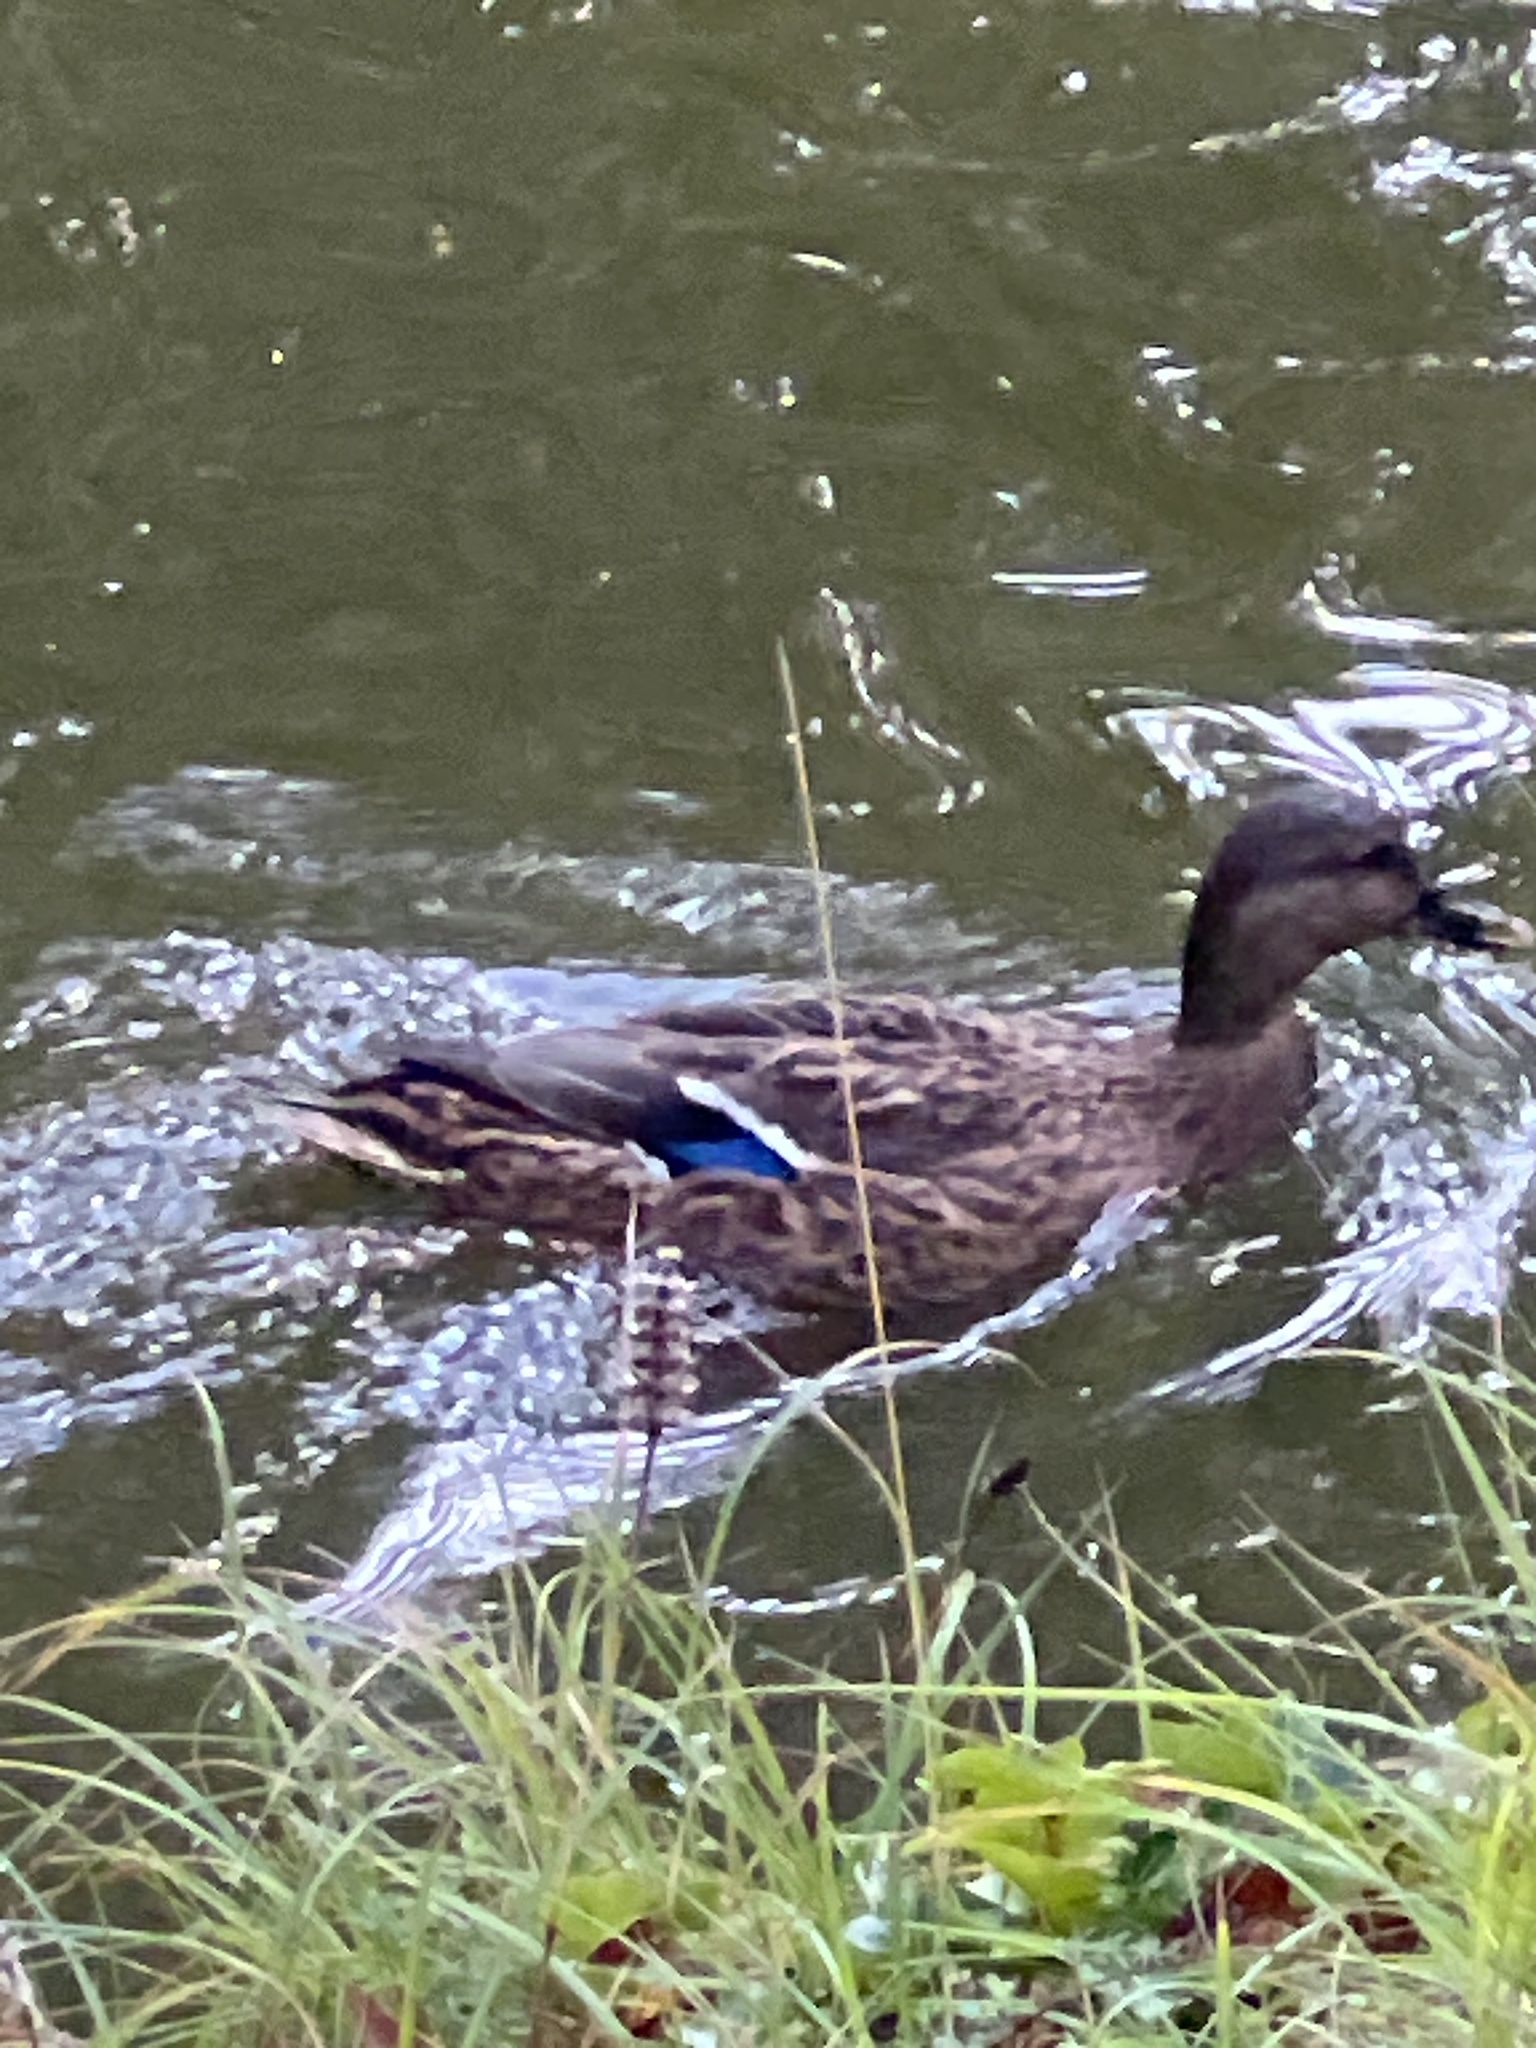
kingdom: Animalia
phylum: Chordata
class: Aves
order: Anseriformes
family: Anatidae
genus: Anas
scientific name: Anas platyrhynchos
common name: Mallard
